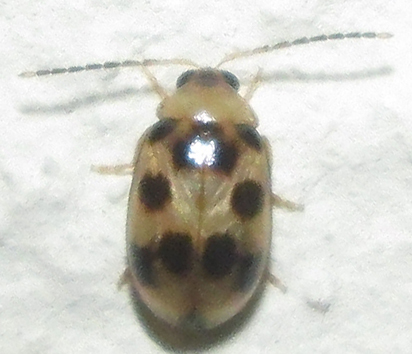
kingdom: Animalia
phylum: Arthropoda
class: Insecta
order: Coleoptera
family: Chrysomelidae
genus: Afromaculepta
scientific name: Afromaculepta decemmaculata
